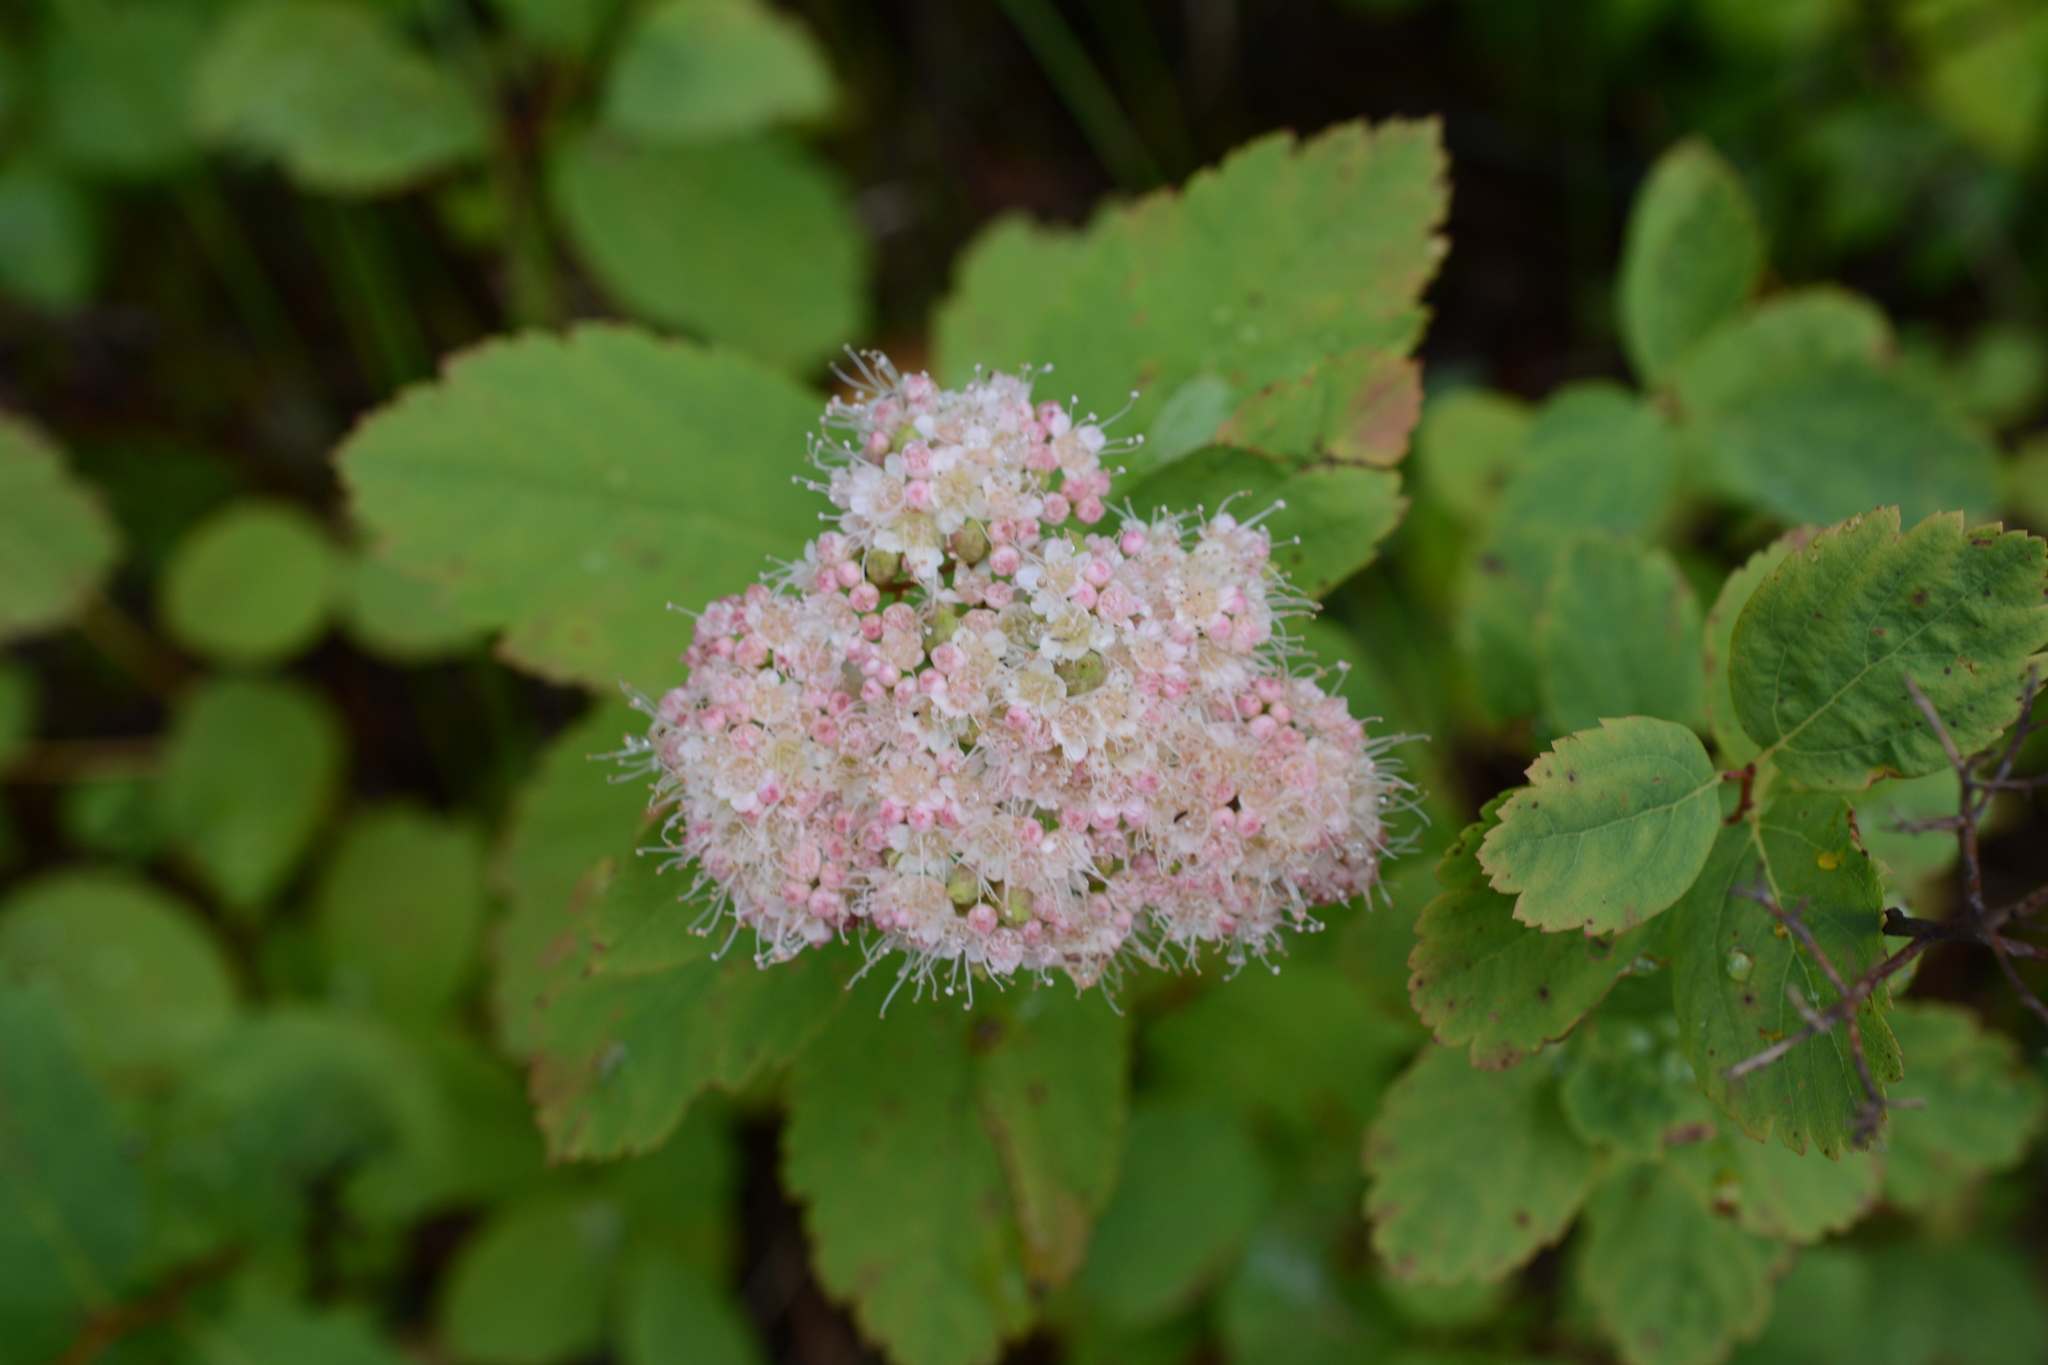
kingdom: Plantae
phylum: Tracheophyta
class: Magnoliopsida
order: Rosales
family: Rosaceae
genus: Spiraea
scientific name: Spiraea lucida
